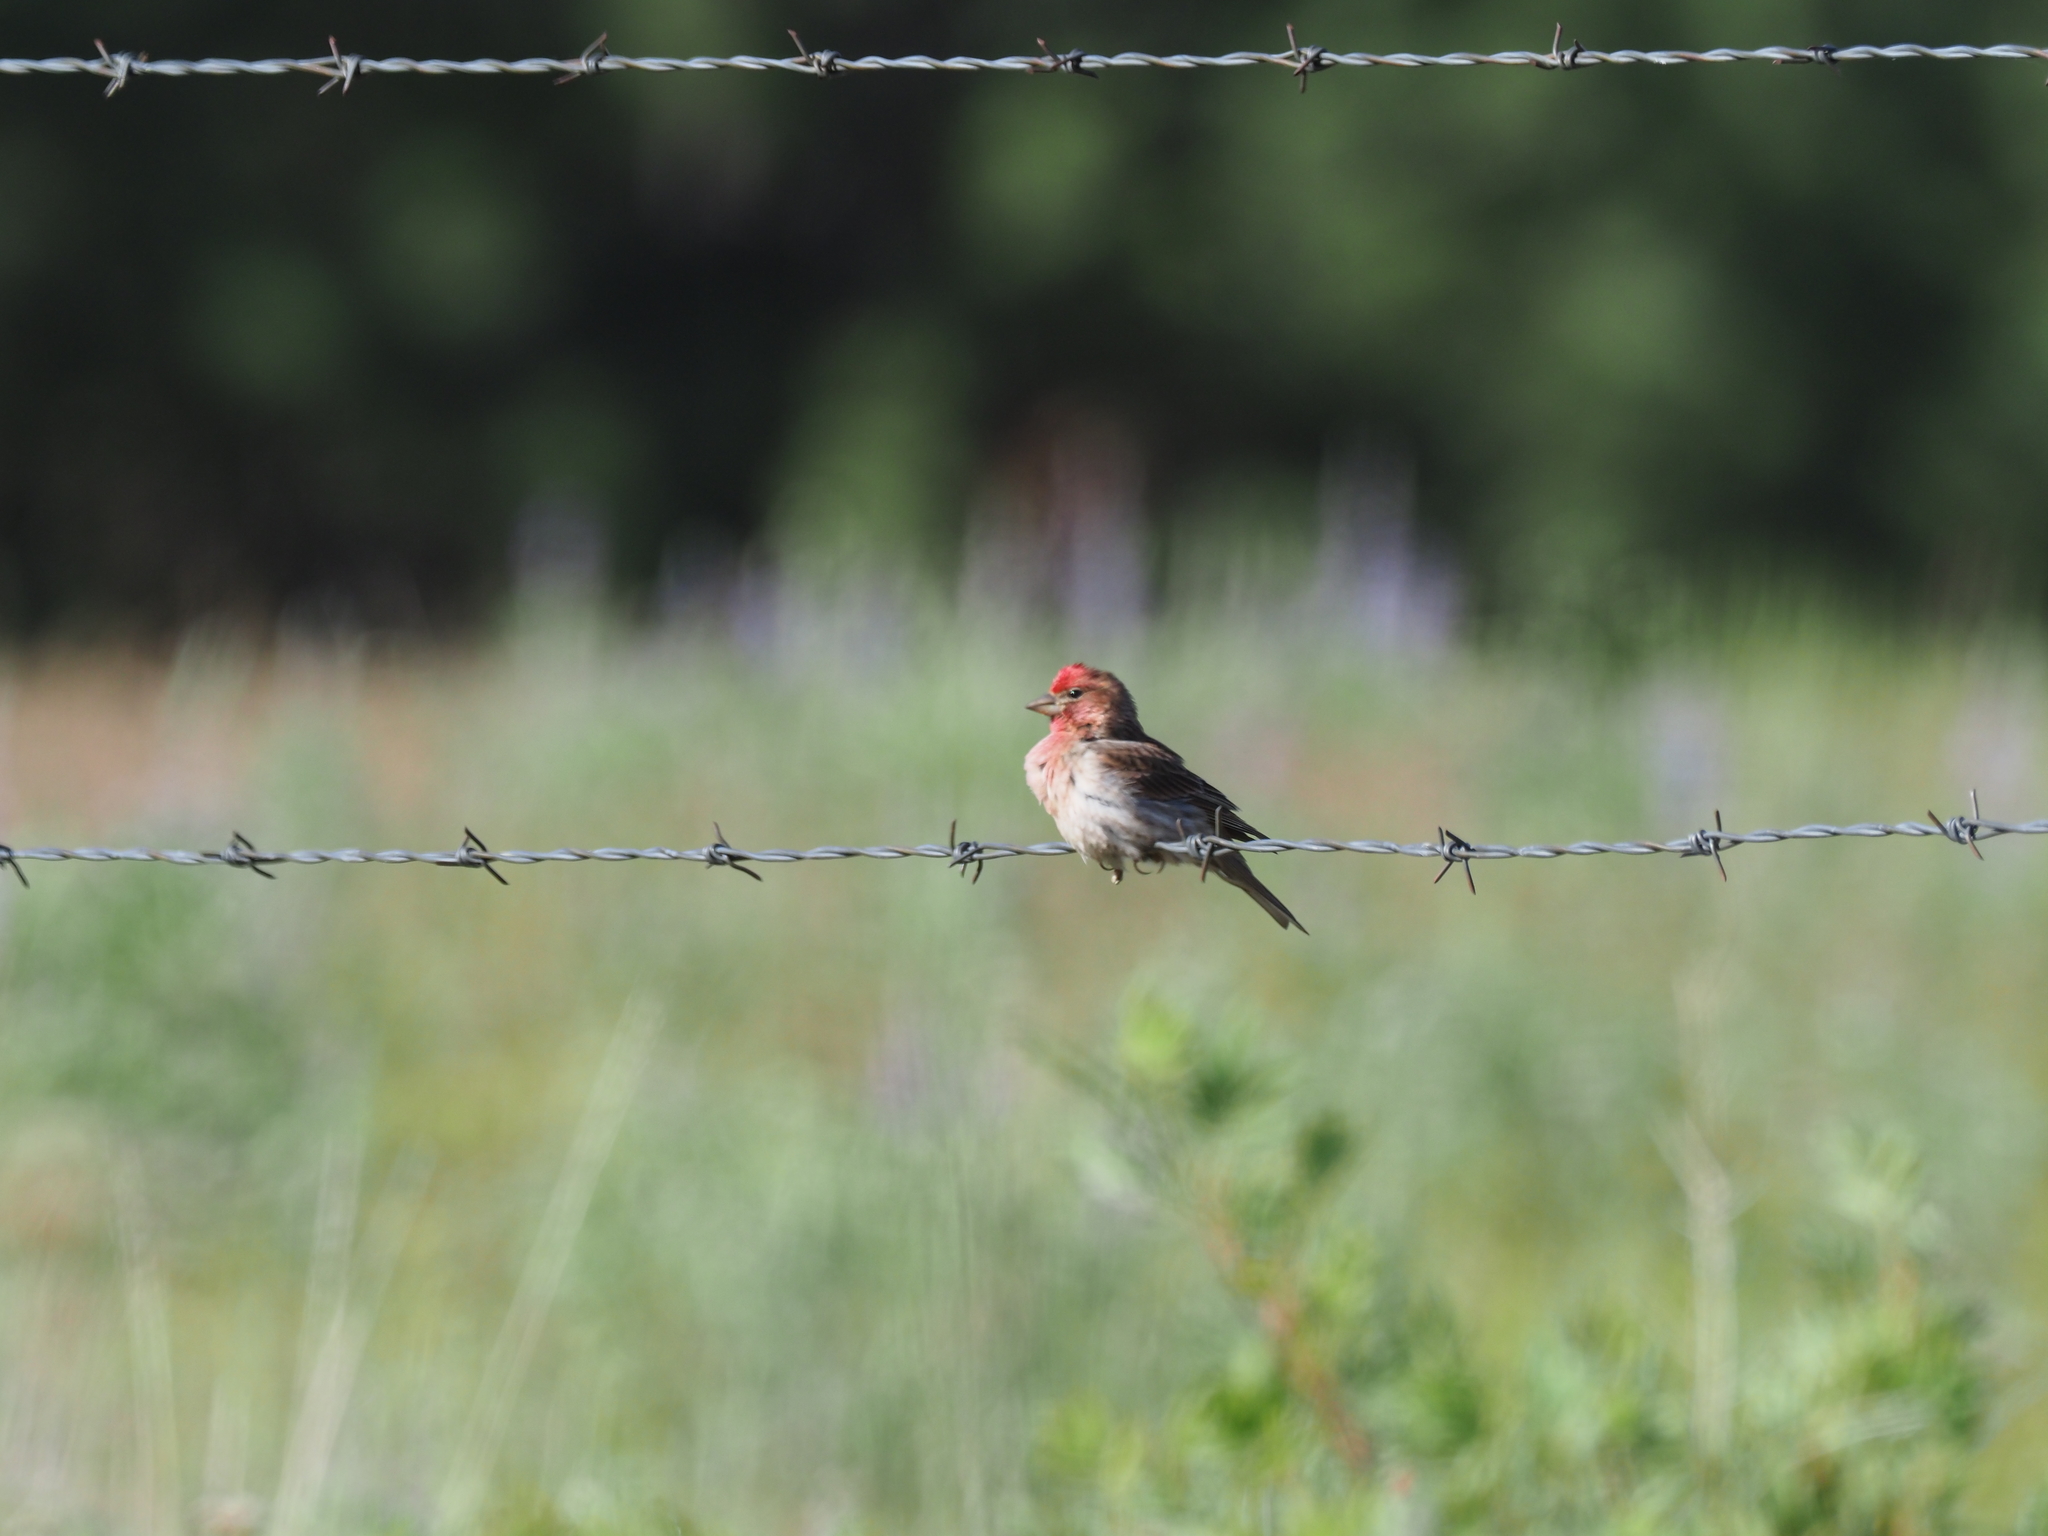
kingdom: Animalia
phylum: Chordata
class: Aves
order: Passeriformes
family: Fringillidae
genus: Haemorhous
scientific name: Haemorhous cassinii
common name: Cassin's finch
